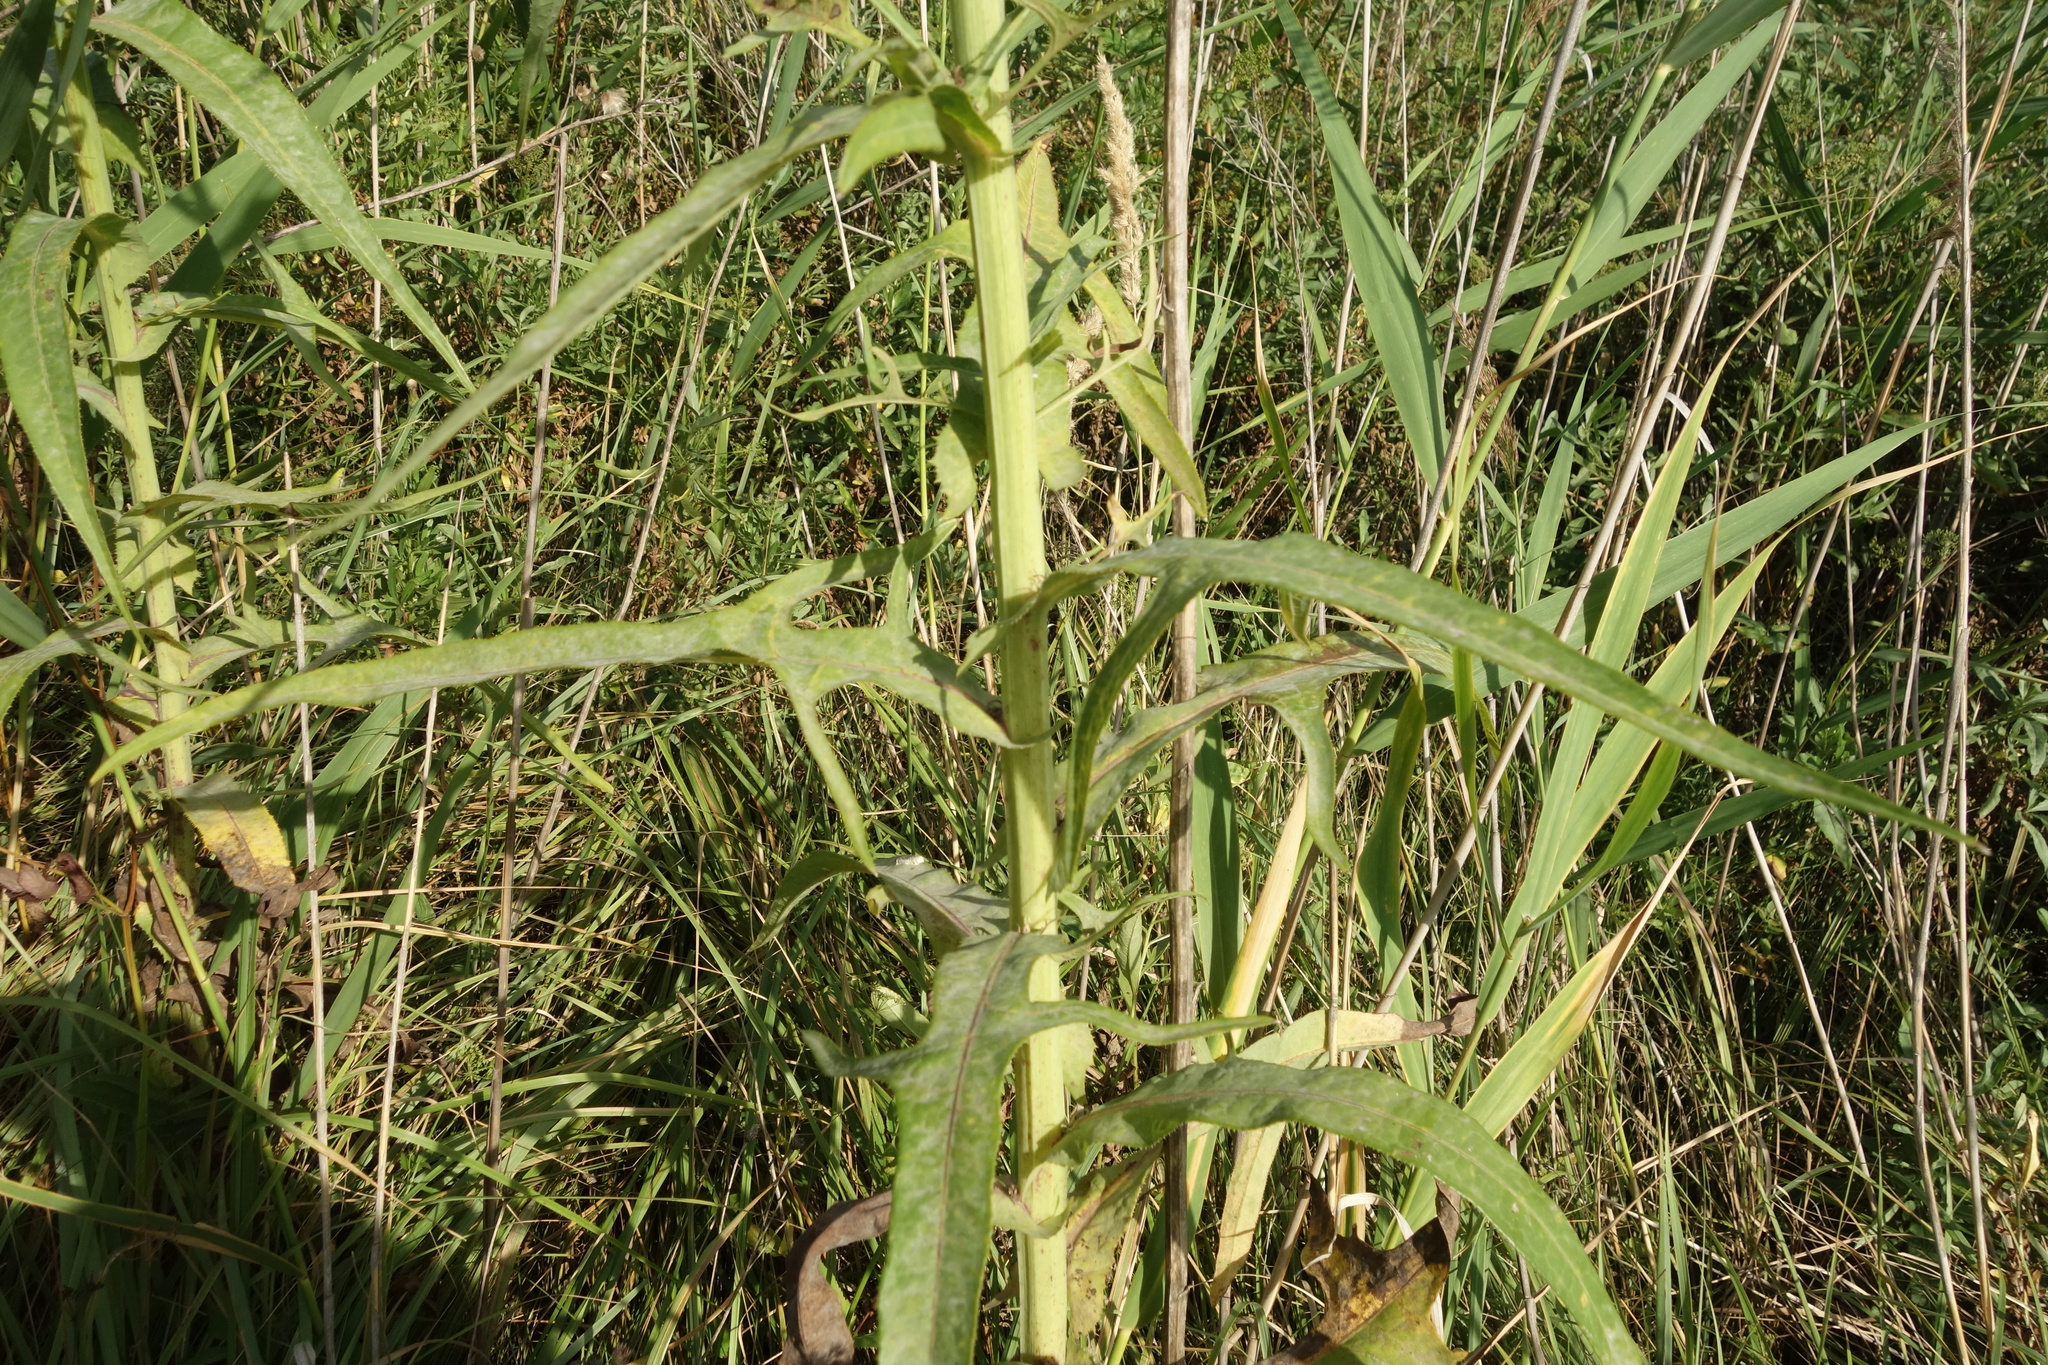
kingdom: Plantae
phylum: Tracheophyta
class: Magnoliopsida
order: Asterales
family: Asteraceae
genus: Sonchus
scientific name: Sonchus palustris
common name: Marsh sow-thistle
